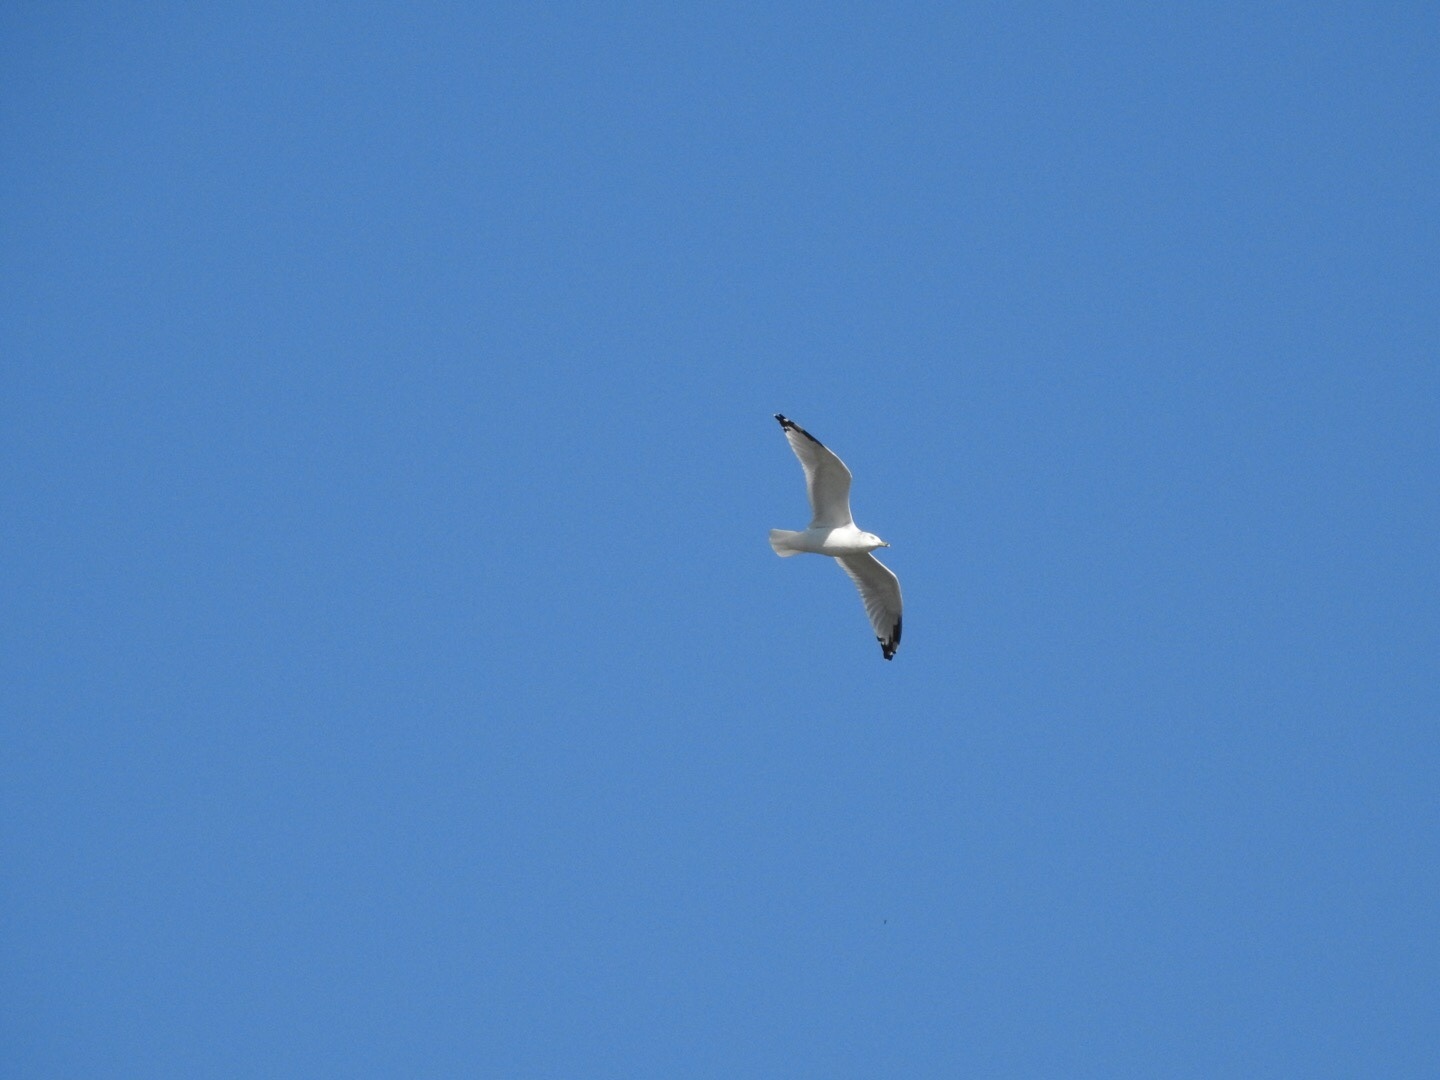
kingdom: Animalia
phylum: Chordata
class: Aves
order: Charadriiformes
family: Laridae
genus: Larus
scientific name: Larus delawarensis
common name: Ring-billed gull
